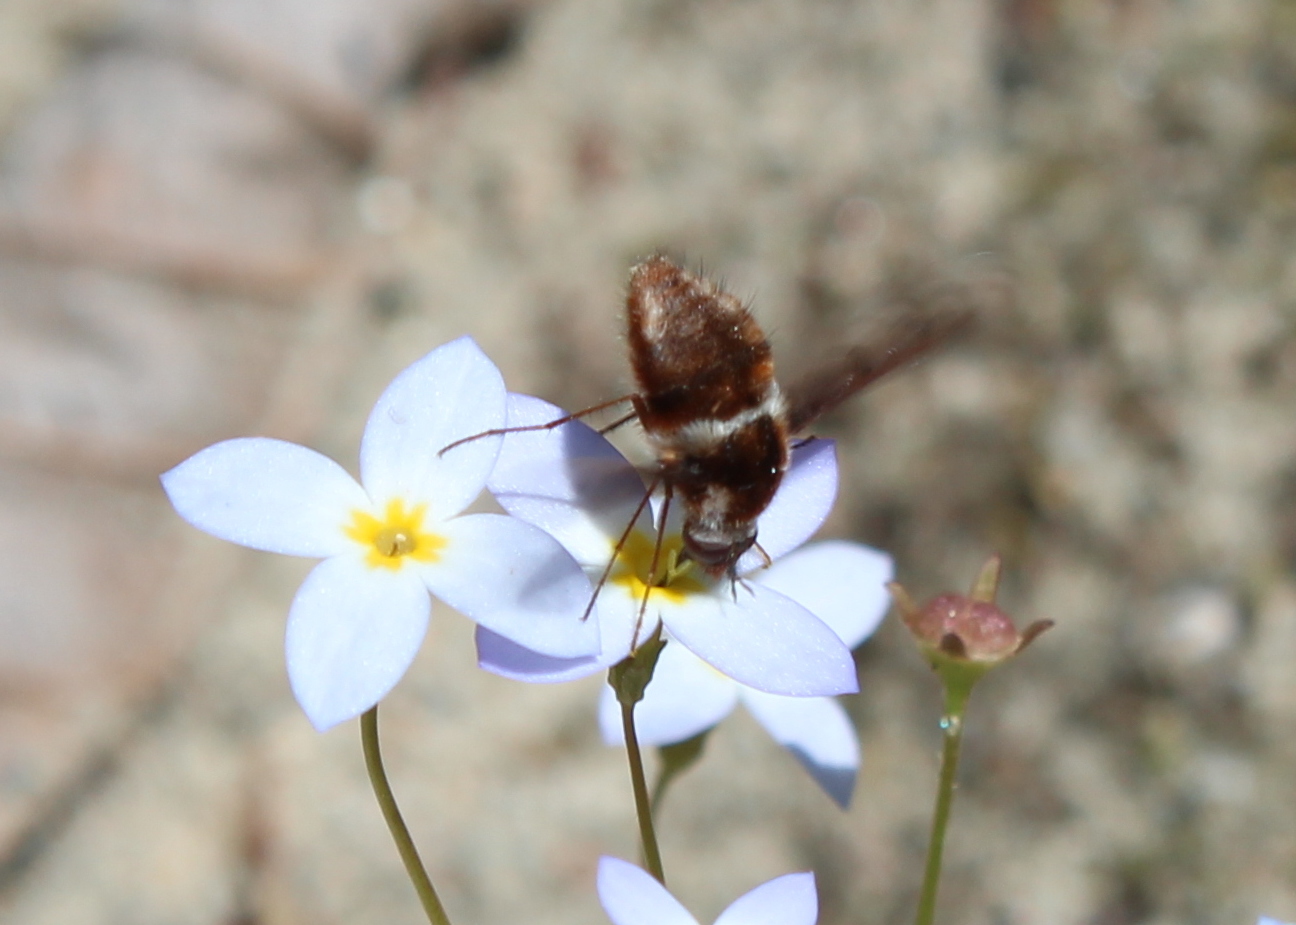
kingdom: Animalia
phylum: Arthropoda
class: Insecta
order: Diptera
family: Bombyliidae
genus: Bombylius
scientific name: Bombylius pygmaeus
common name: Pygmy bee fly
